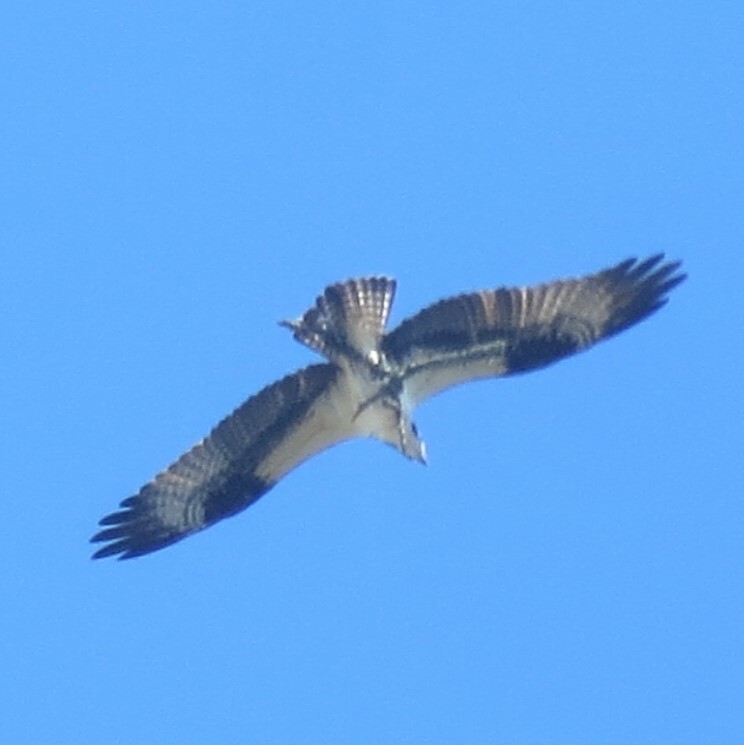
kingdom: Animalia
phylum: Chordata
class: Aves
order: Accipitriformes
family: Pandionidae
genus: Pandion
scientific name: Pandion haliaetus
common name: Osprey
